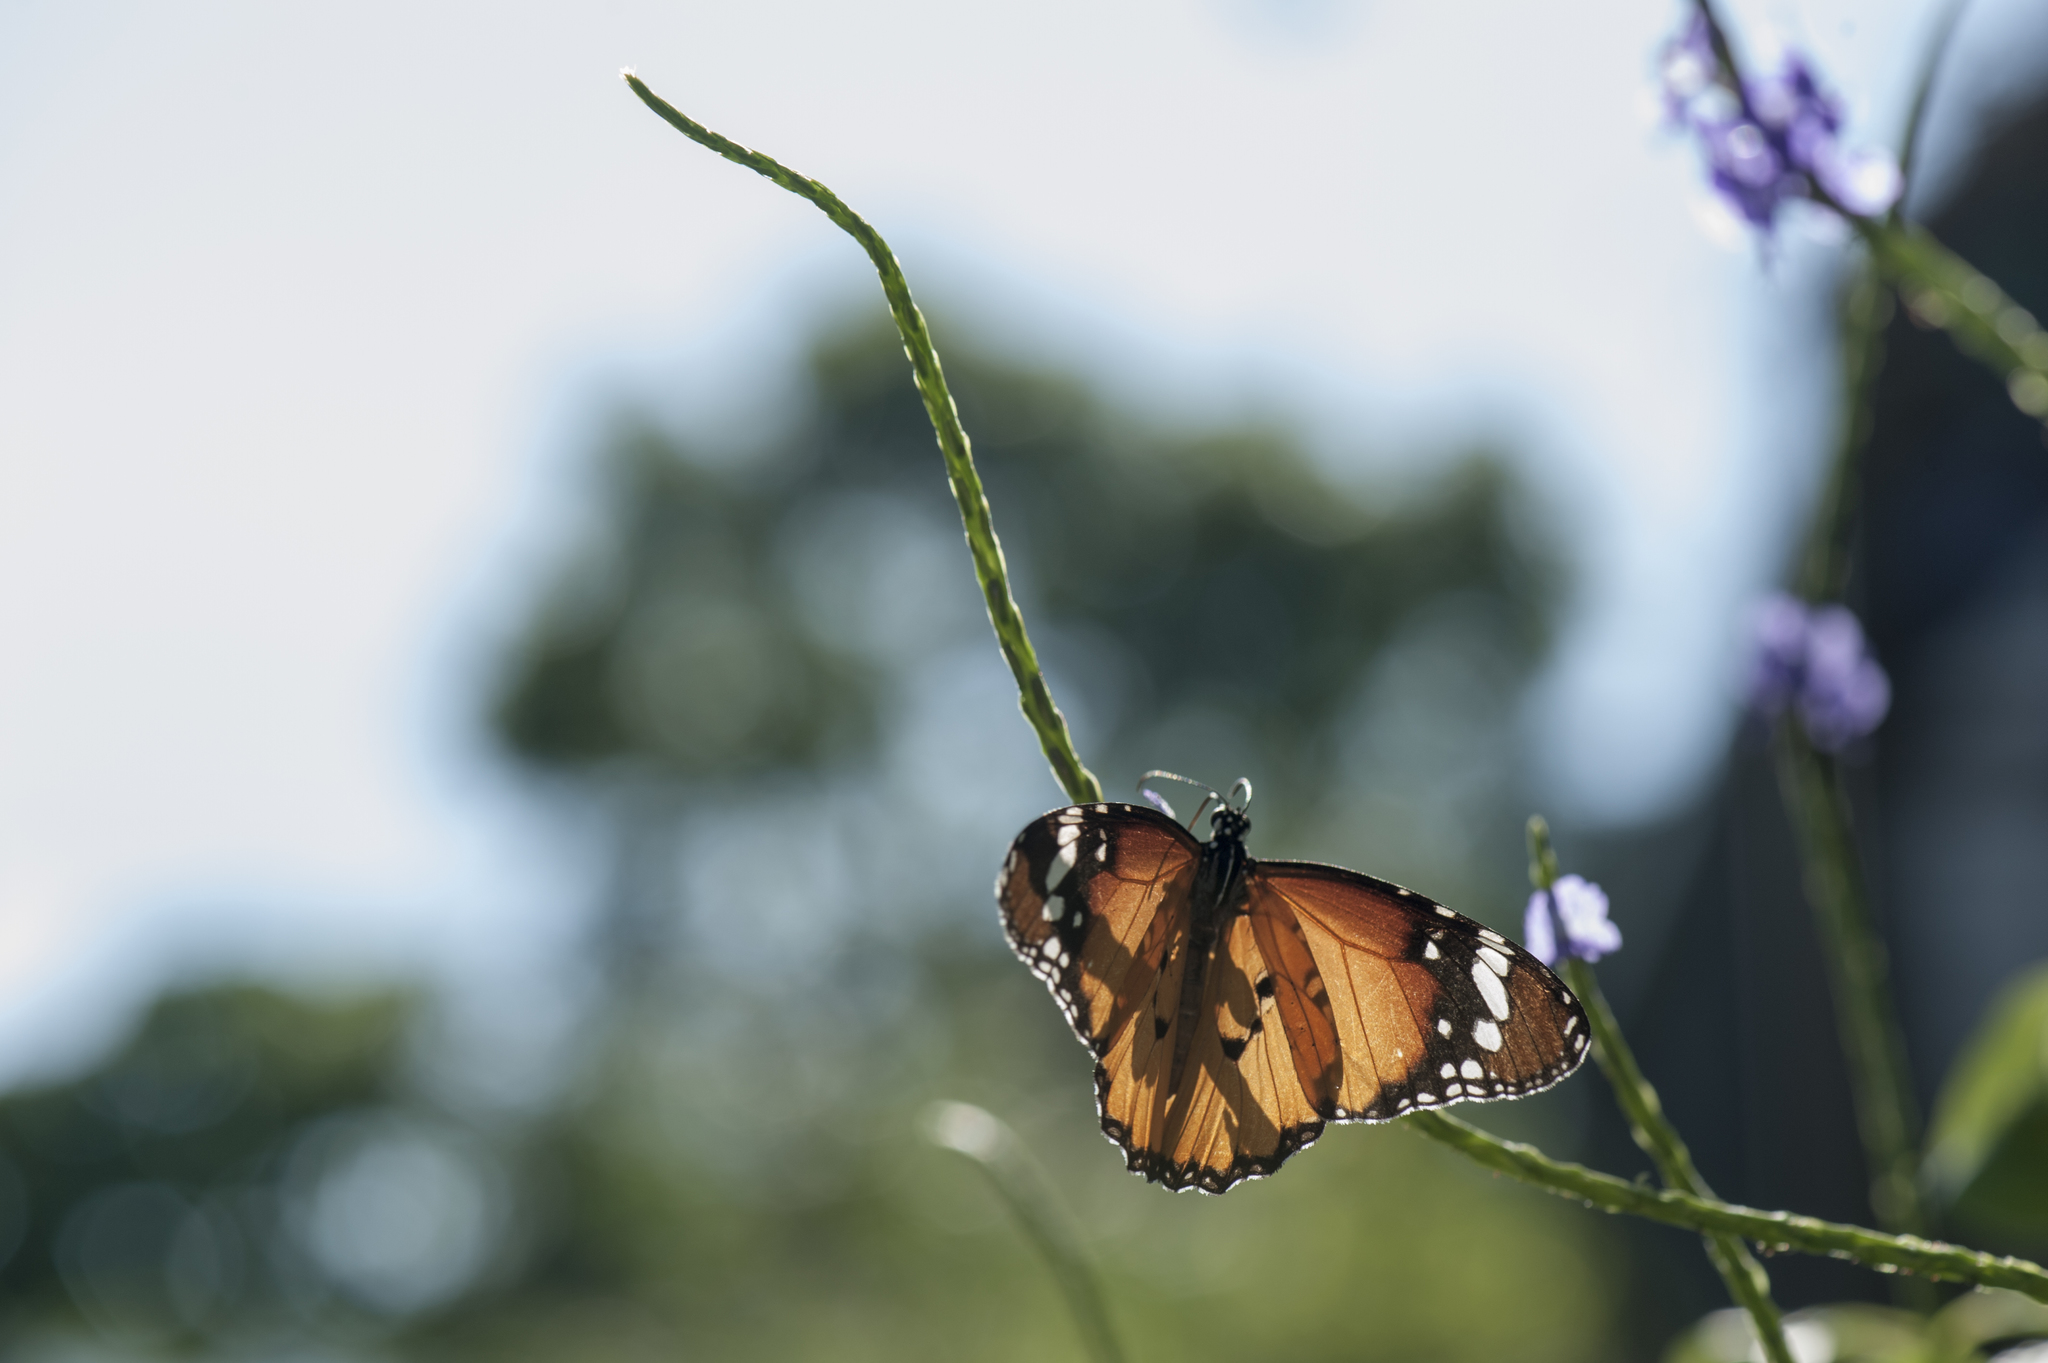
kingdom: Animalia
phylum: Arthropoda
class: Insecta
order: Lepidoptera
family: Nymphalidae
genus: Danaus
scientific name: Danaus chrysippus
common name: Plain tiger
